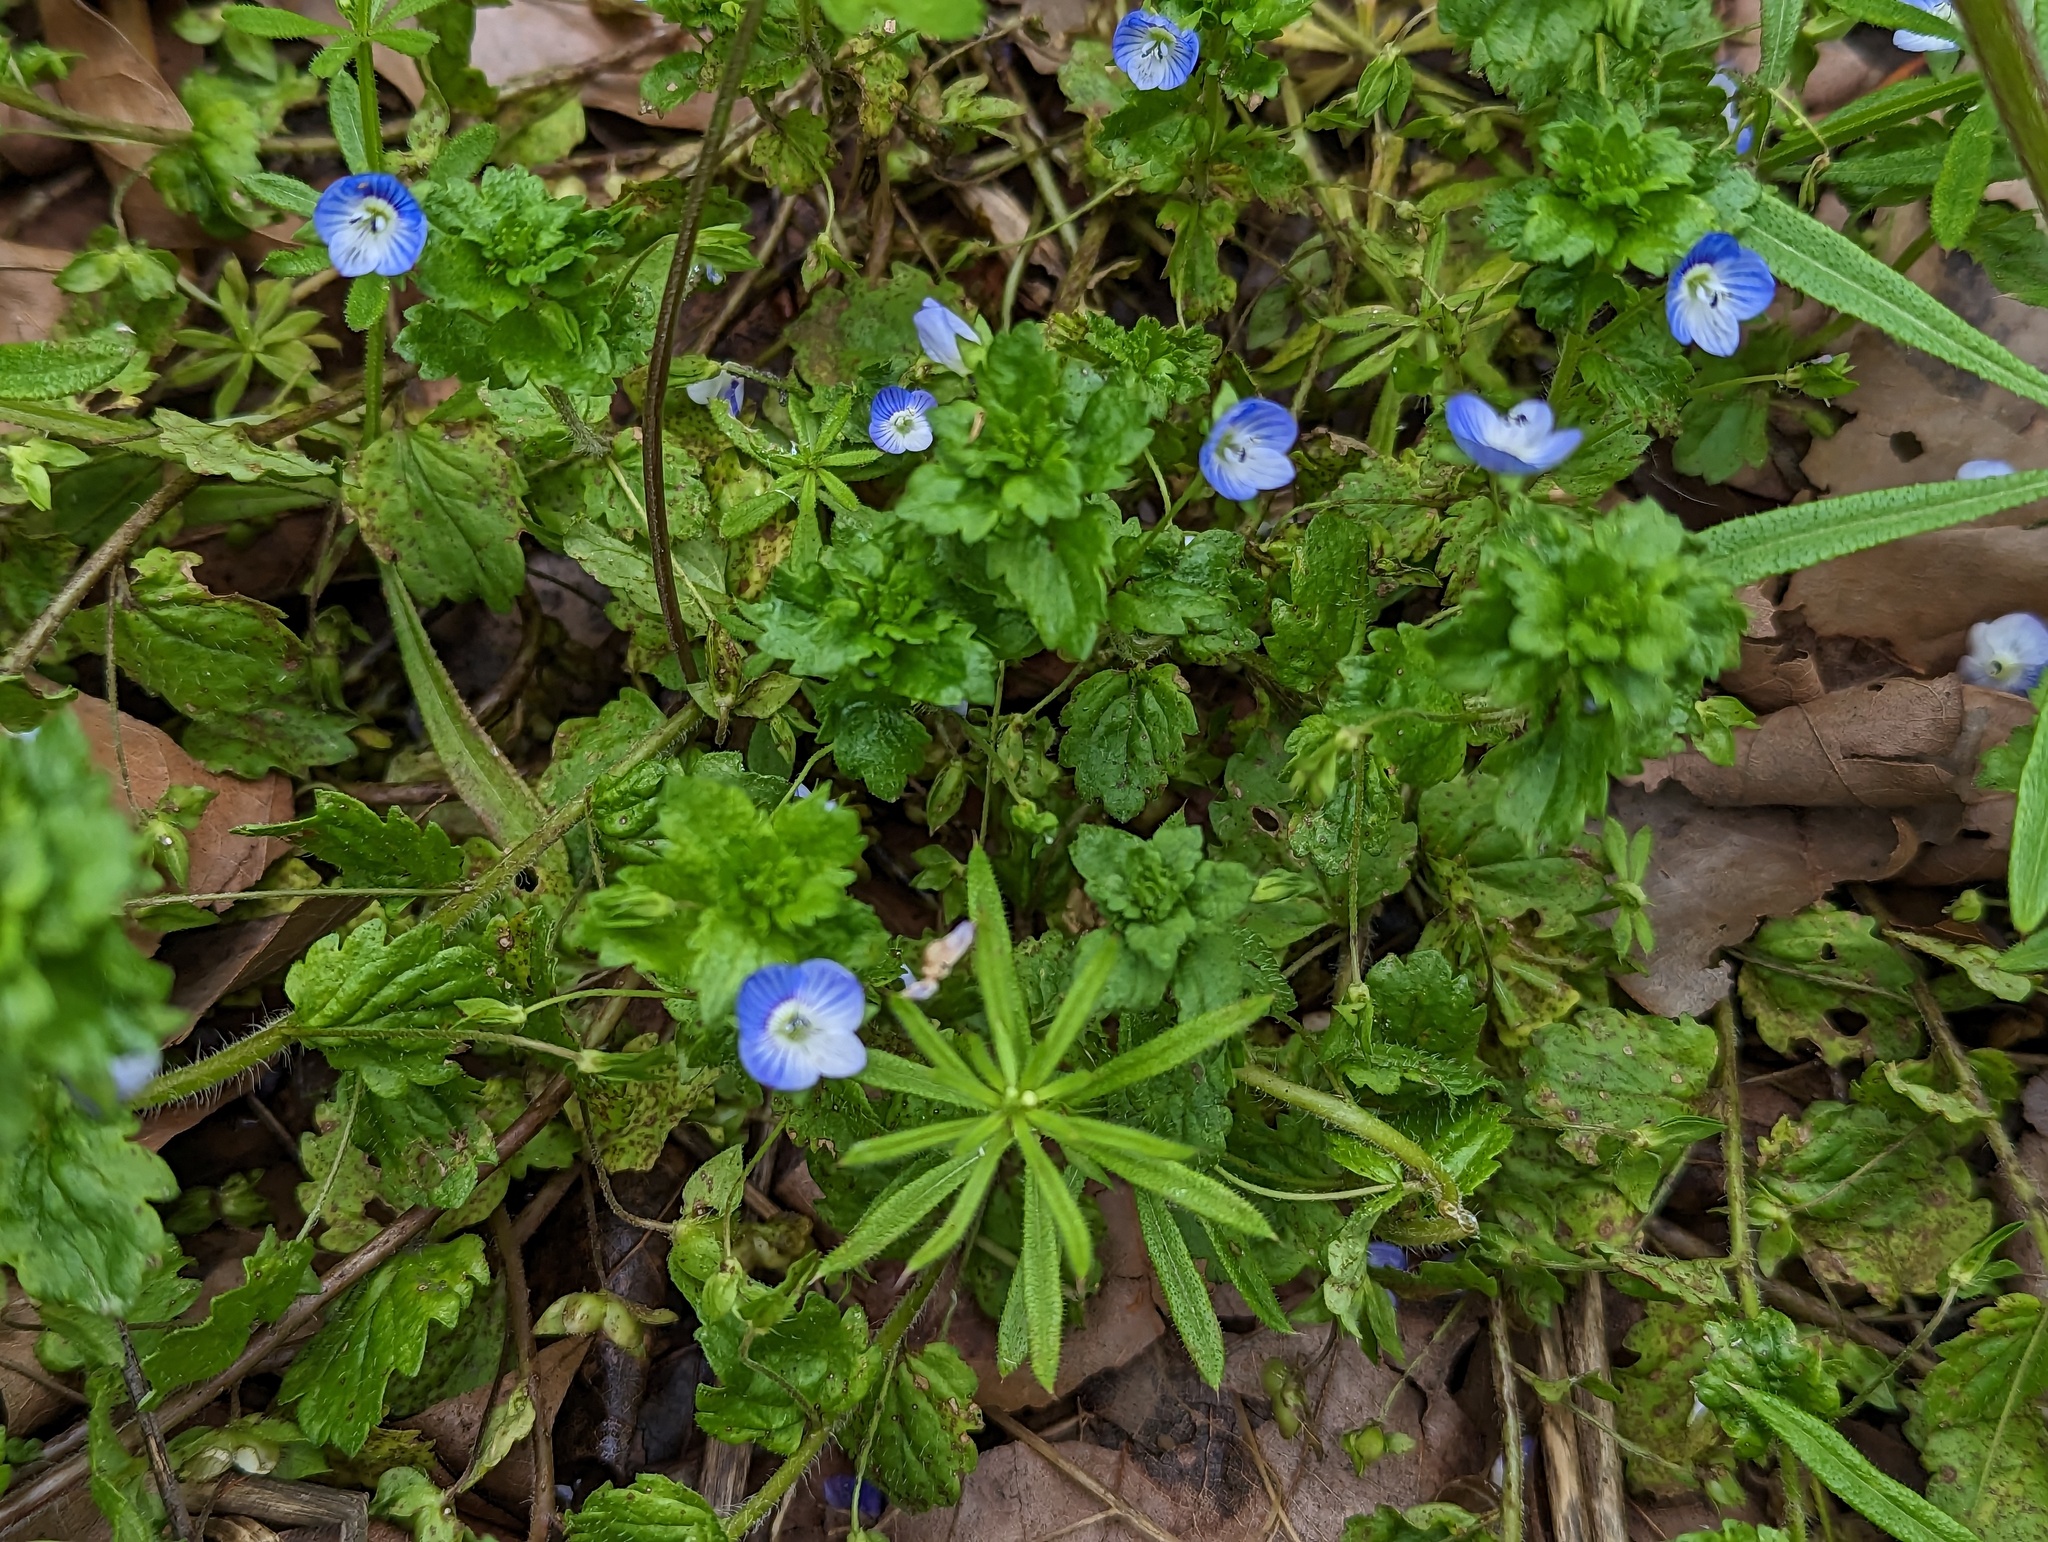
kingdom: Plantae
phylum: Tracheophyta
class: Magnoliopsida
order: Lamiales
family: Plantaginaceae
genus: Veronica
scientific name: Veronica persica
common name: Common field-speedwell
